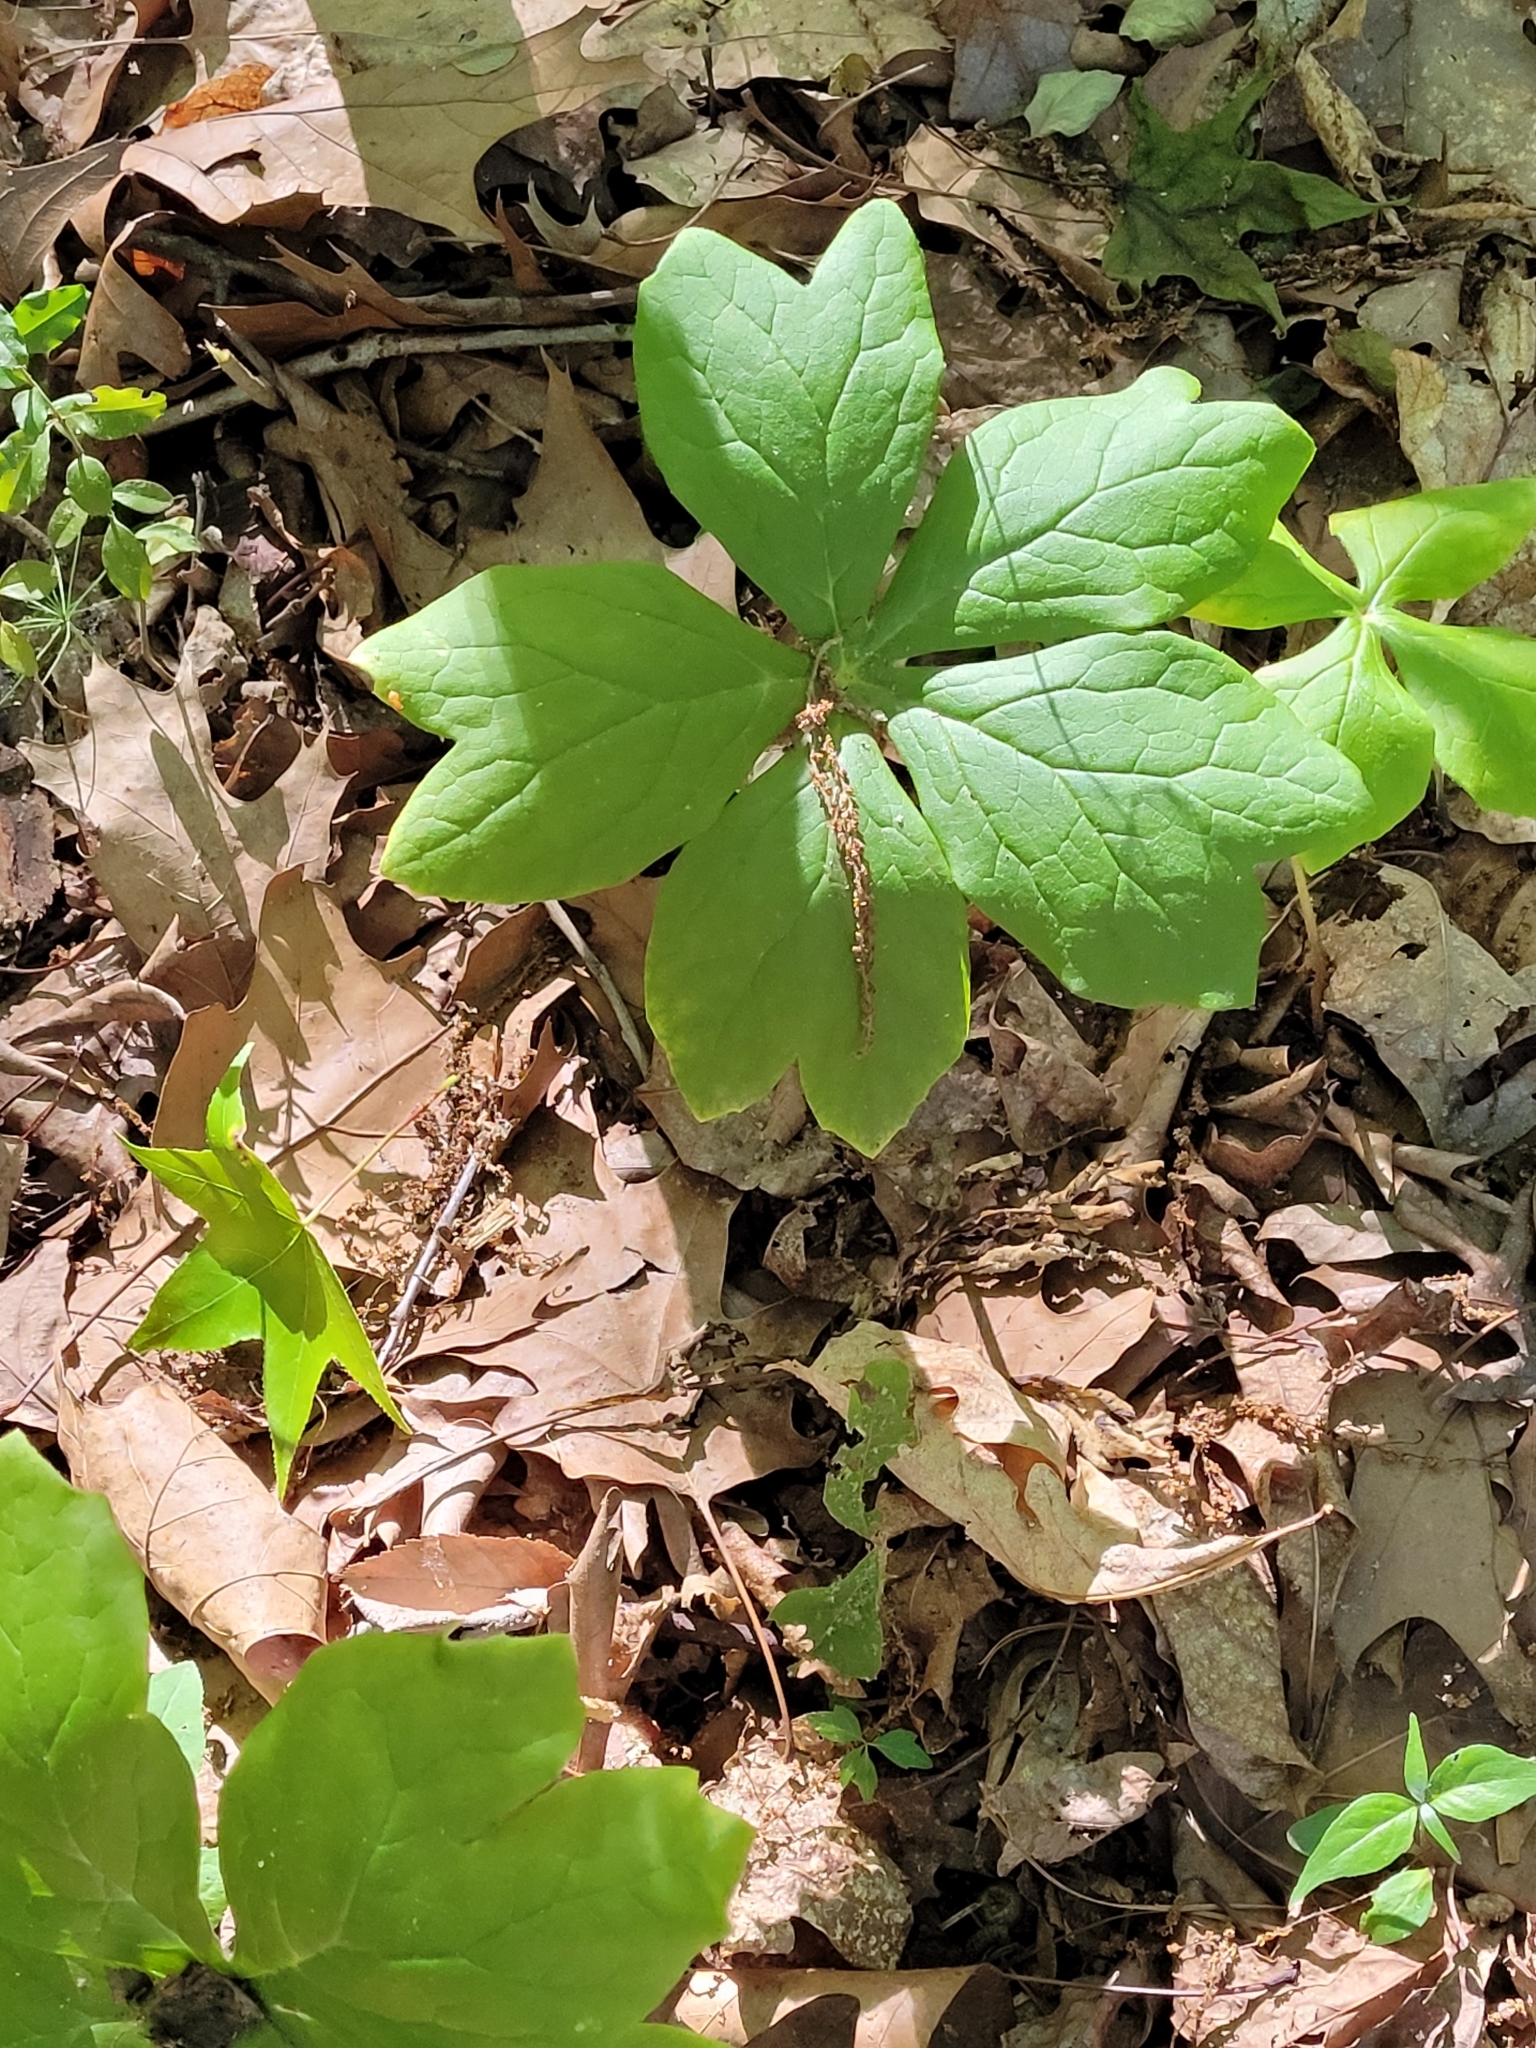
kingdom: Plantae
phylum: Tracheophyta
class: Magnoliopsida
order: Ranunculales
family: Berberidaceae
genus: Podophyllum
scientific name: Podophyllum peltatum
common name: Wild mandrake
